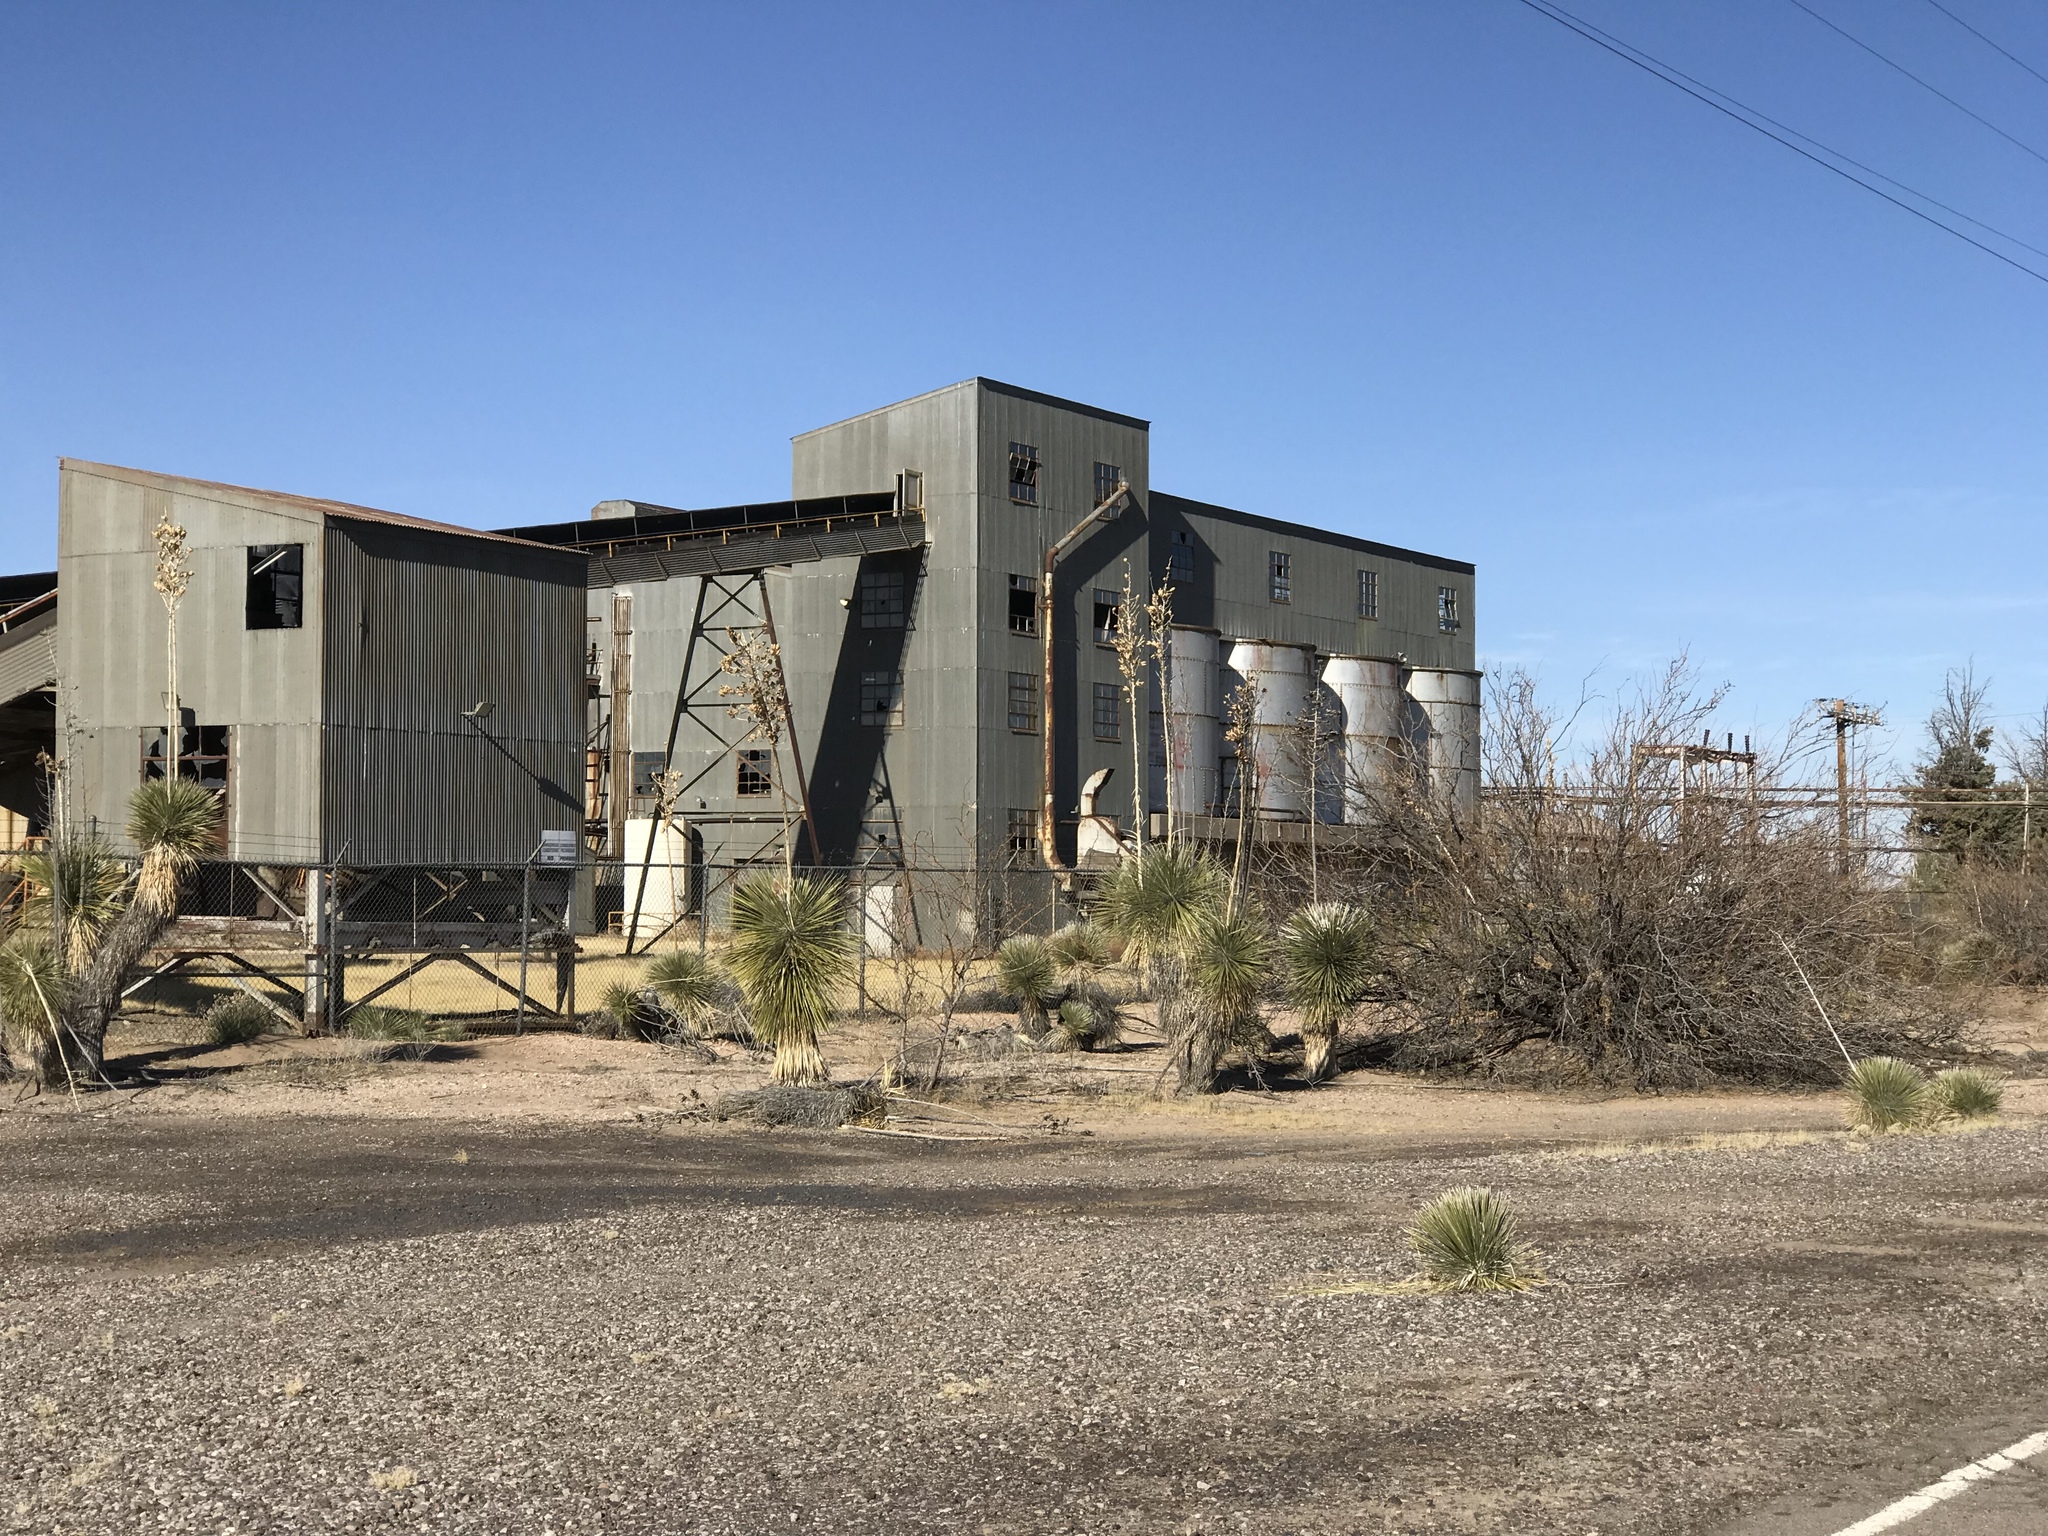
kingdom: Plantae
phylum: Tracheophyta
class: Liliopsida
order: Asparagales
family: Asparagaceae
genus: Yucca
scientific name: Yucca elata
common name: Palmella
